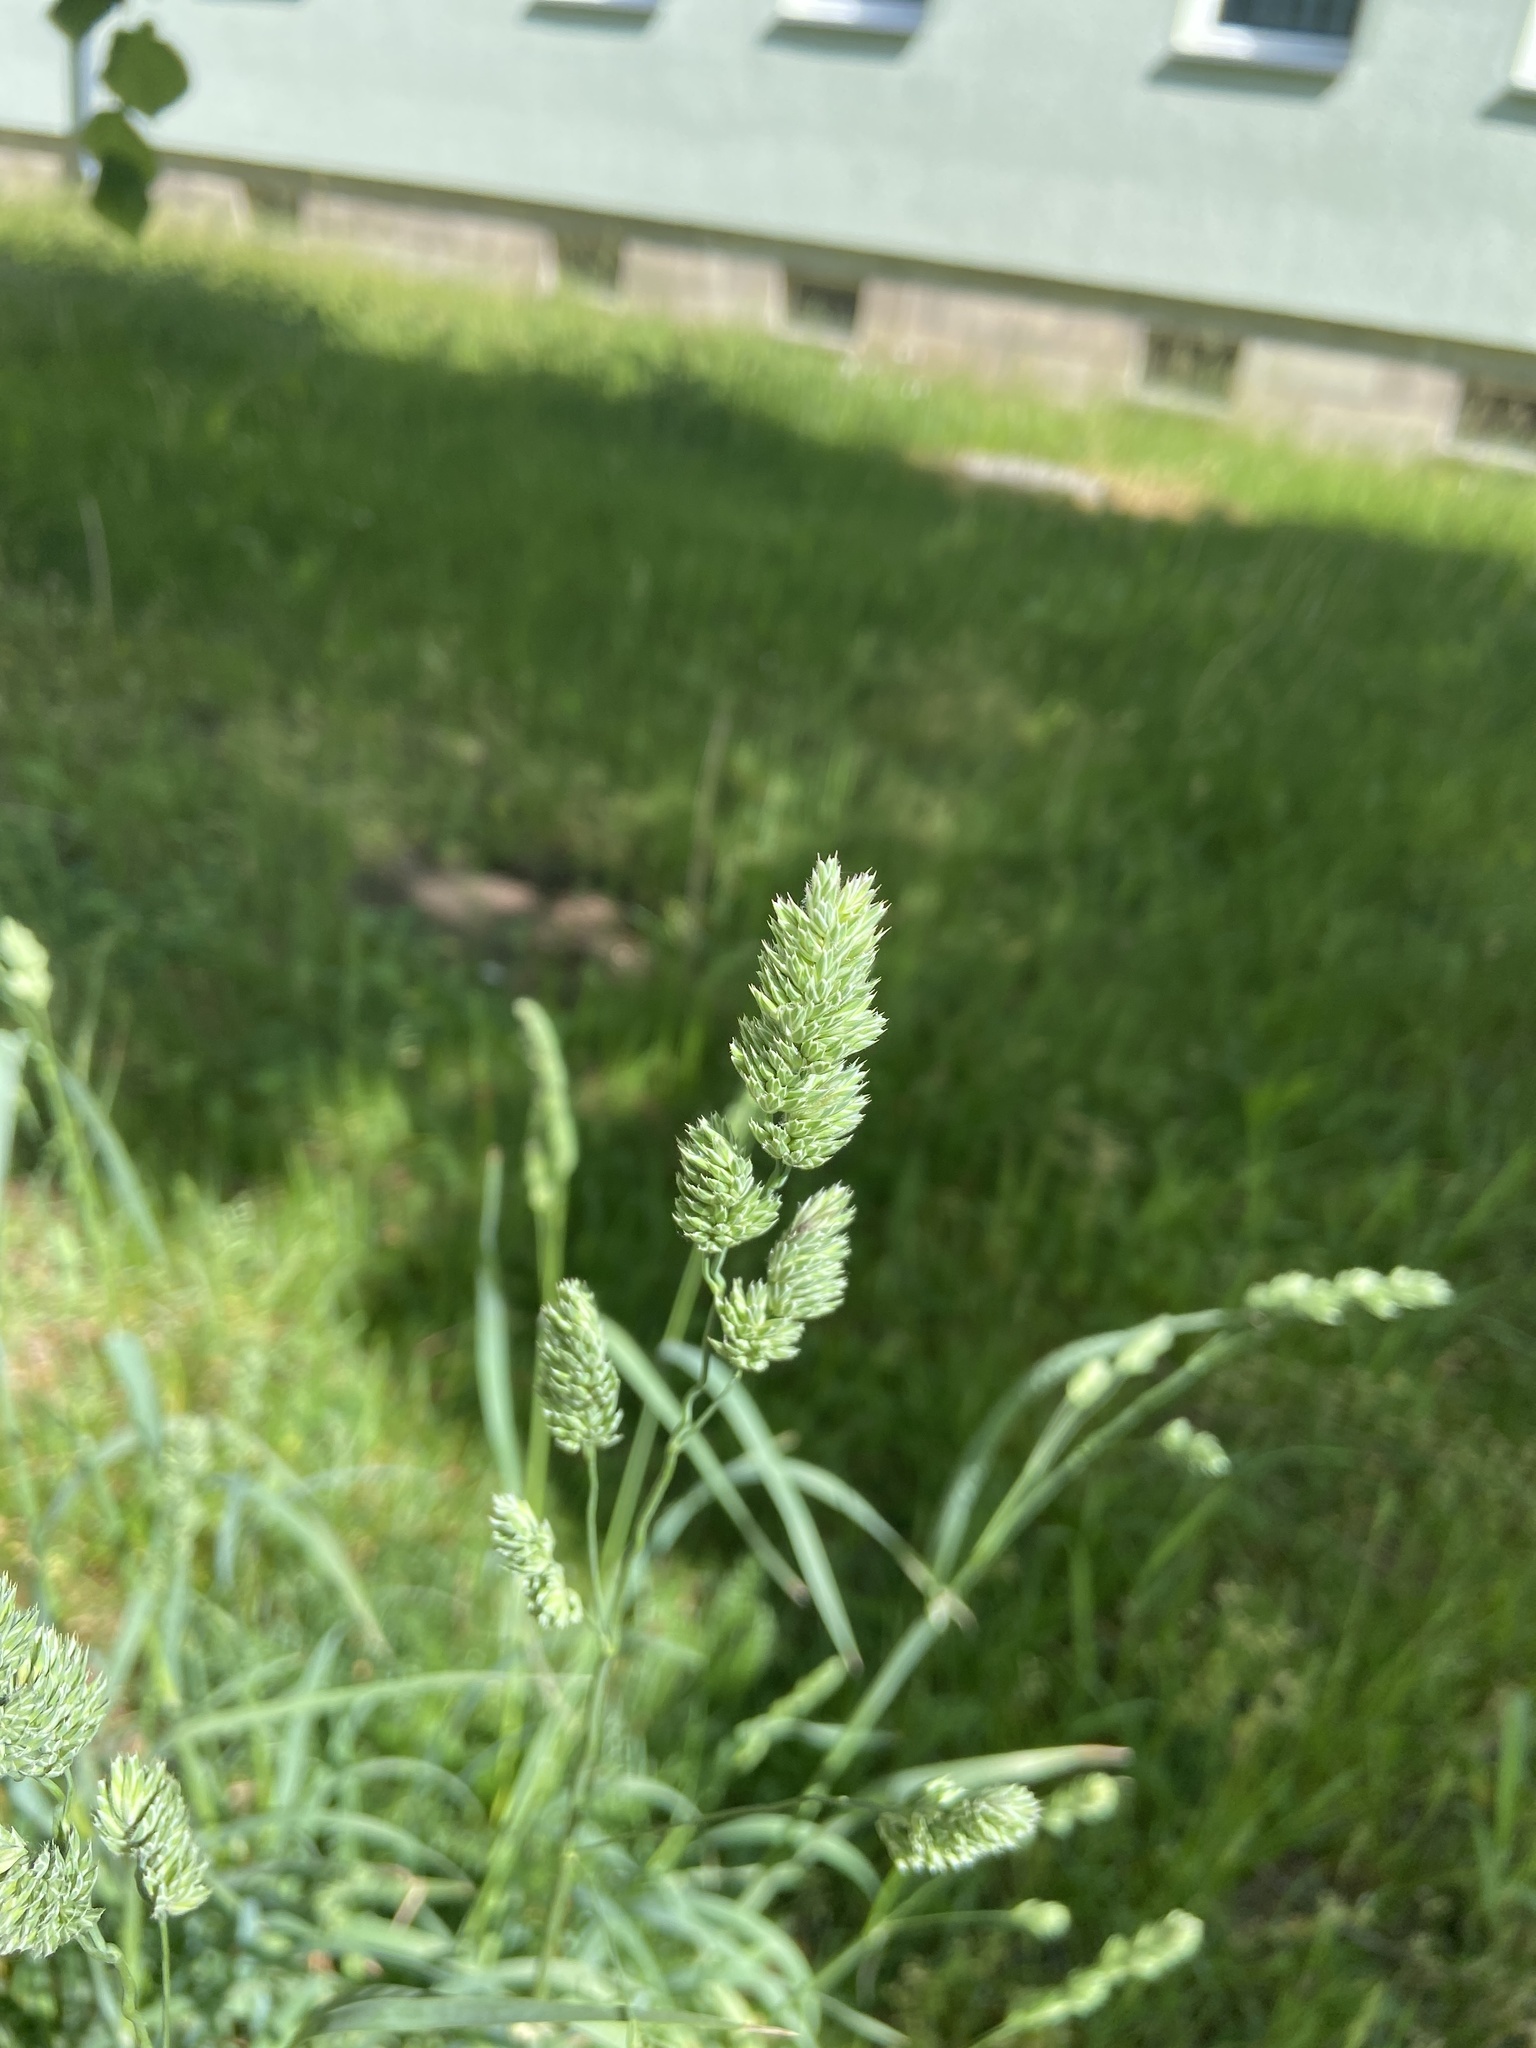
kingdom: Plantae
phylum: Tracheophyta
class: Liliopsida
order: Poales
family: Poaceae
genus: Dactylis
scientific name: Dactylis glomerata
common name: Orchardgrass
